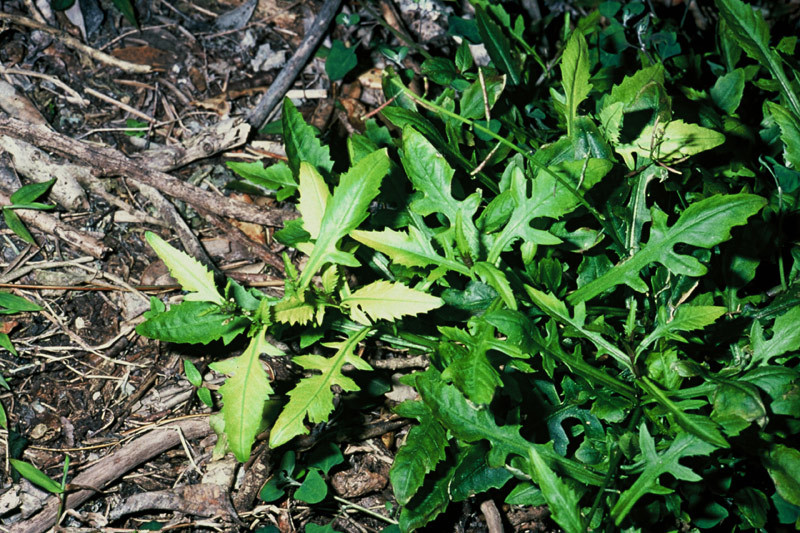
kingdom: Plantae
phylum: Tracheophyta
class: Magnoliopsida
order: Brassicales
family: Brassicaceae
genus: Rorippa
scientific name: Rorippa divaricata
